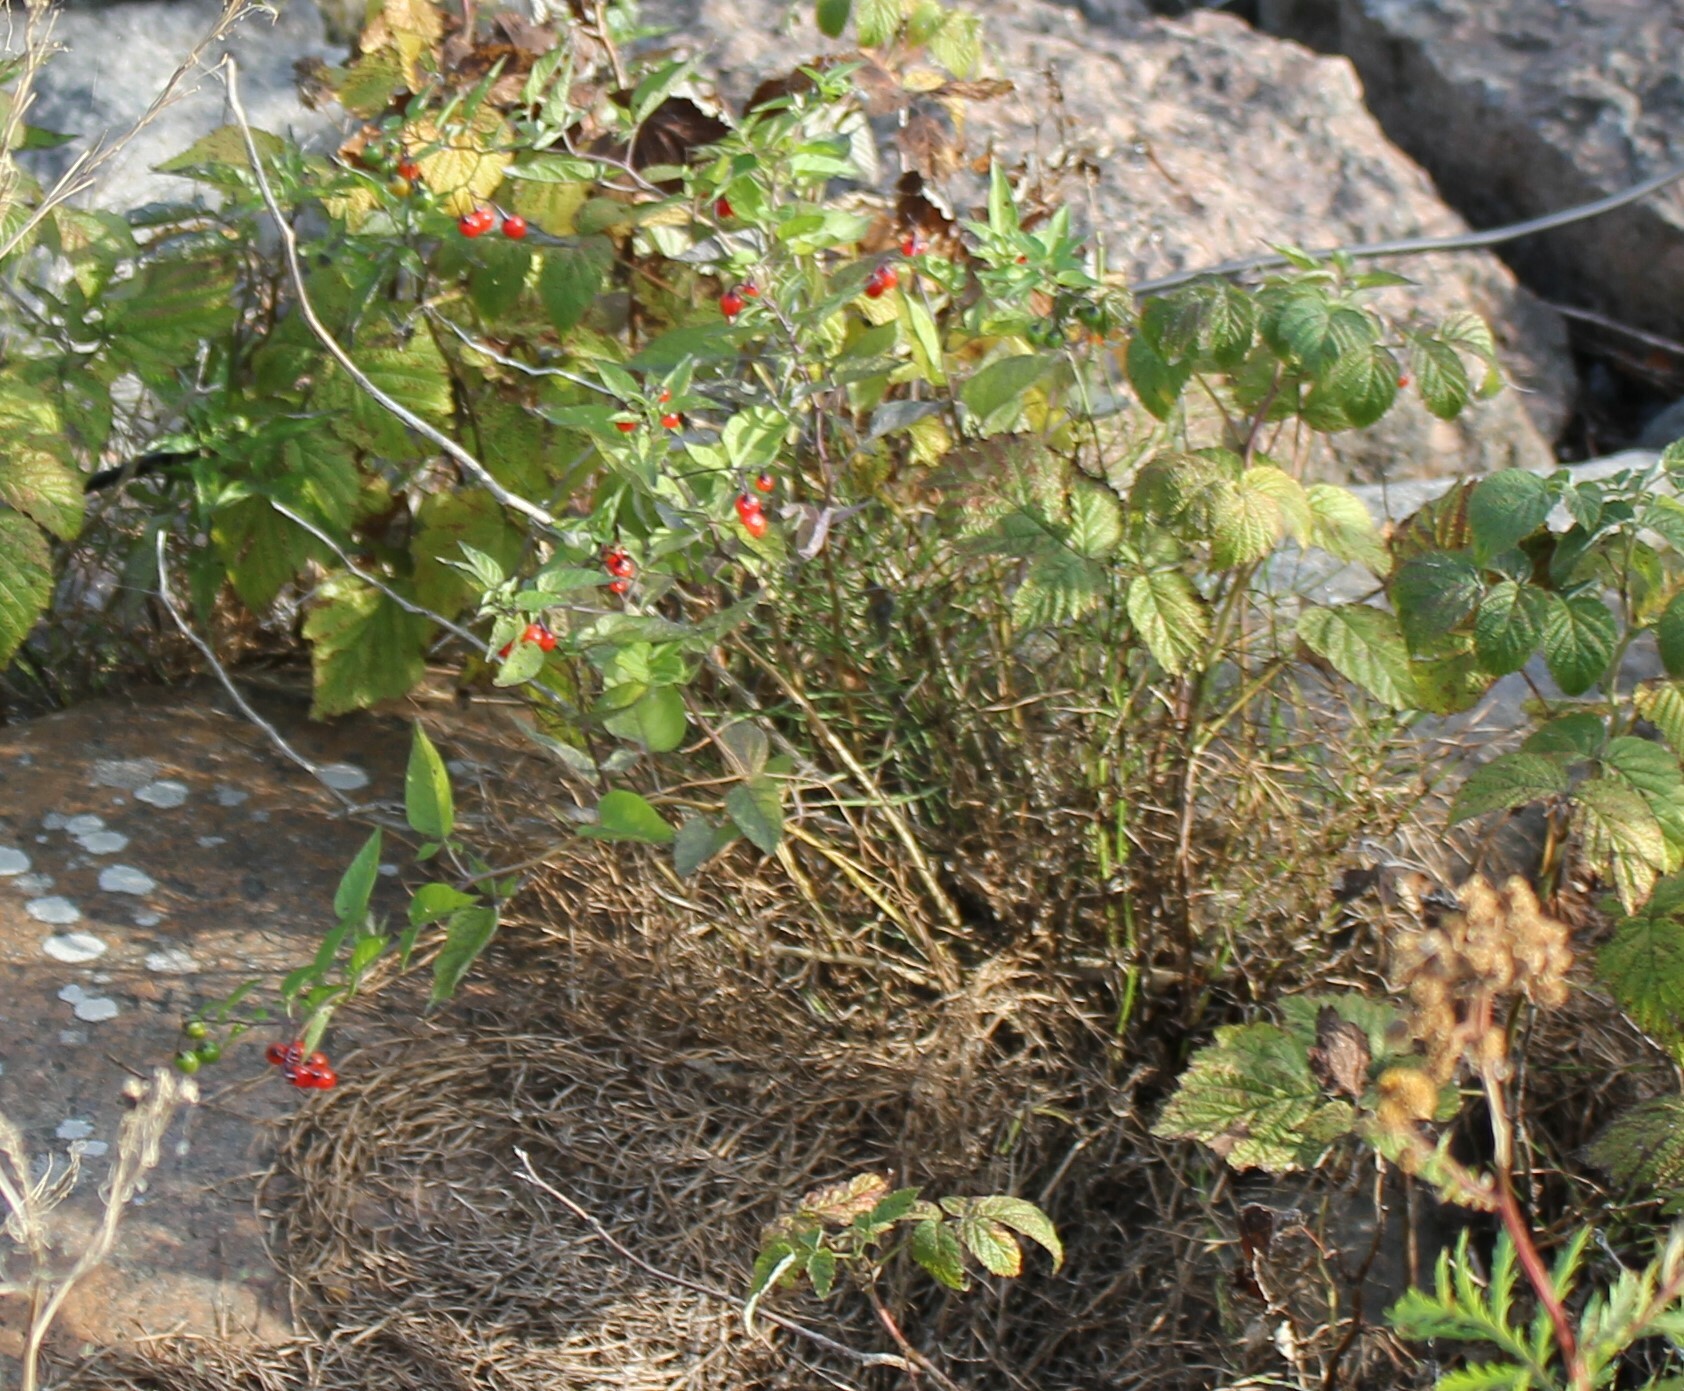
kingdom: Plantae
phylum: Tracheophyta
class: Magnoliopsida
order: Solanales
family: Solanaceae
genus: Solanum
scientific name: Solanum dulcamara
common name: Climbing nightshade
